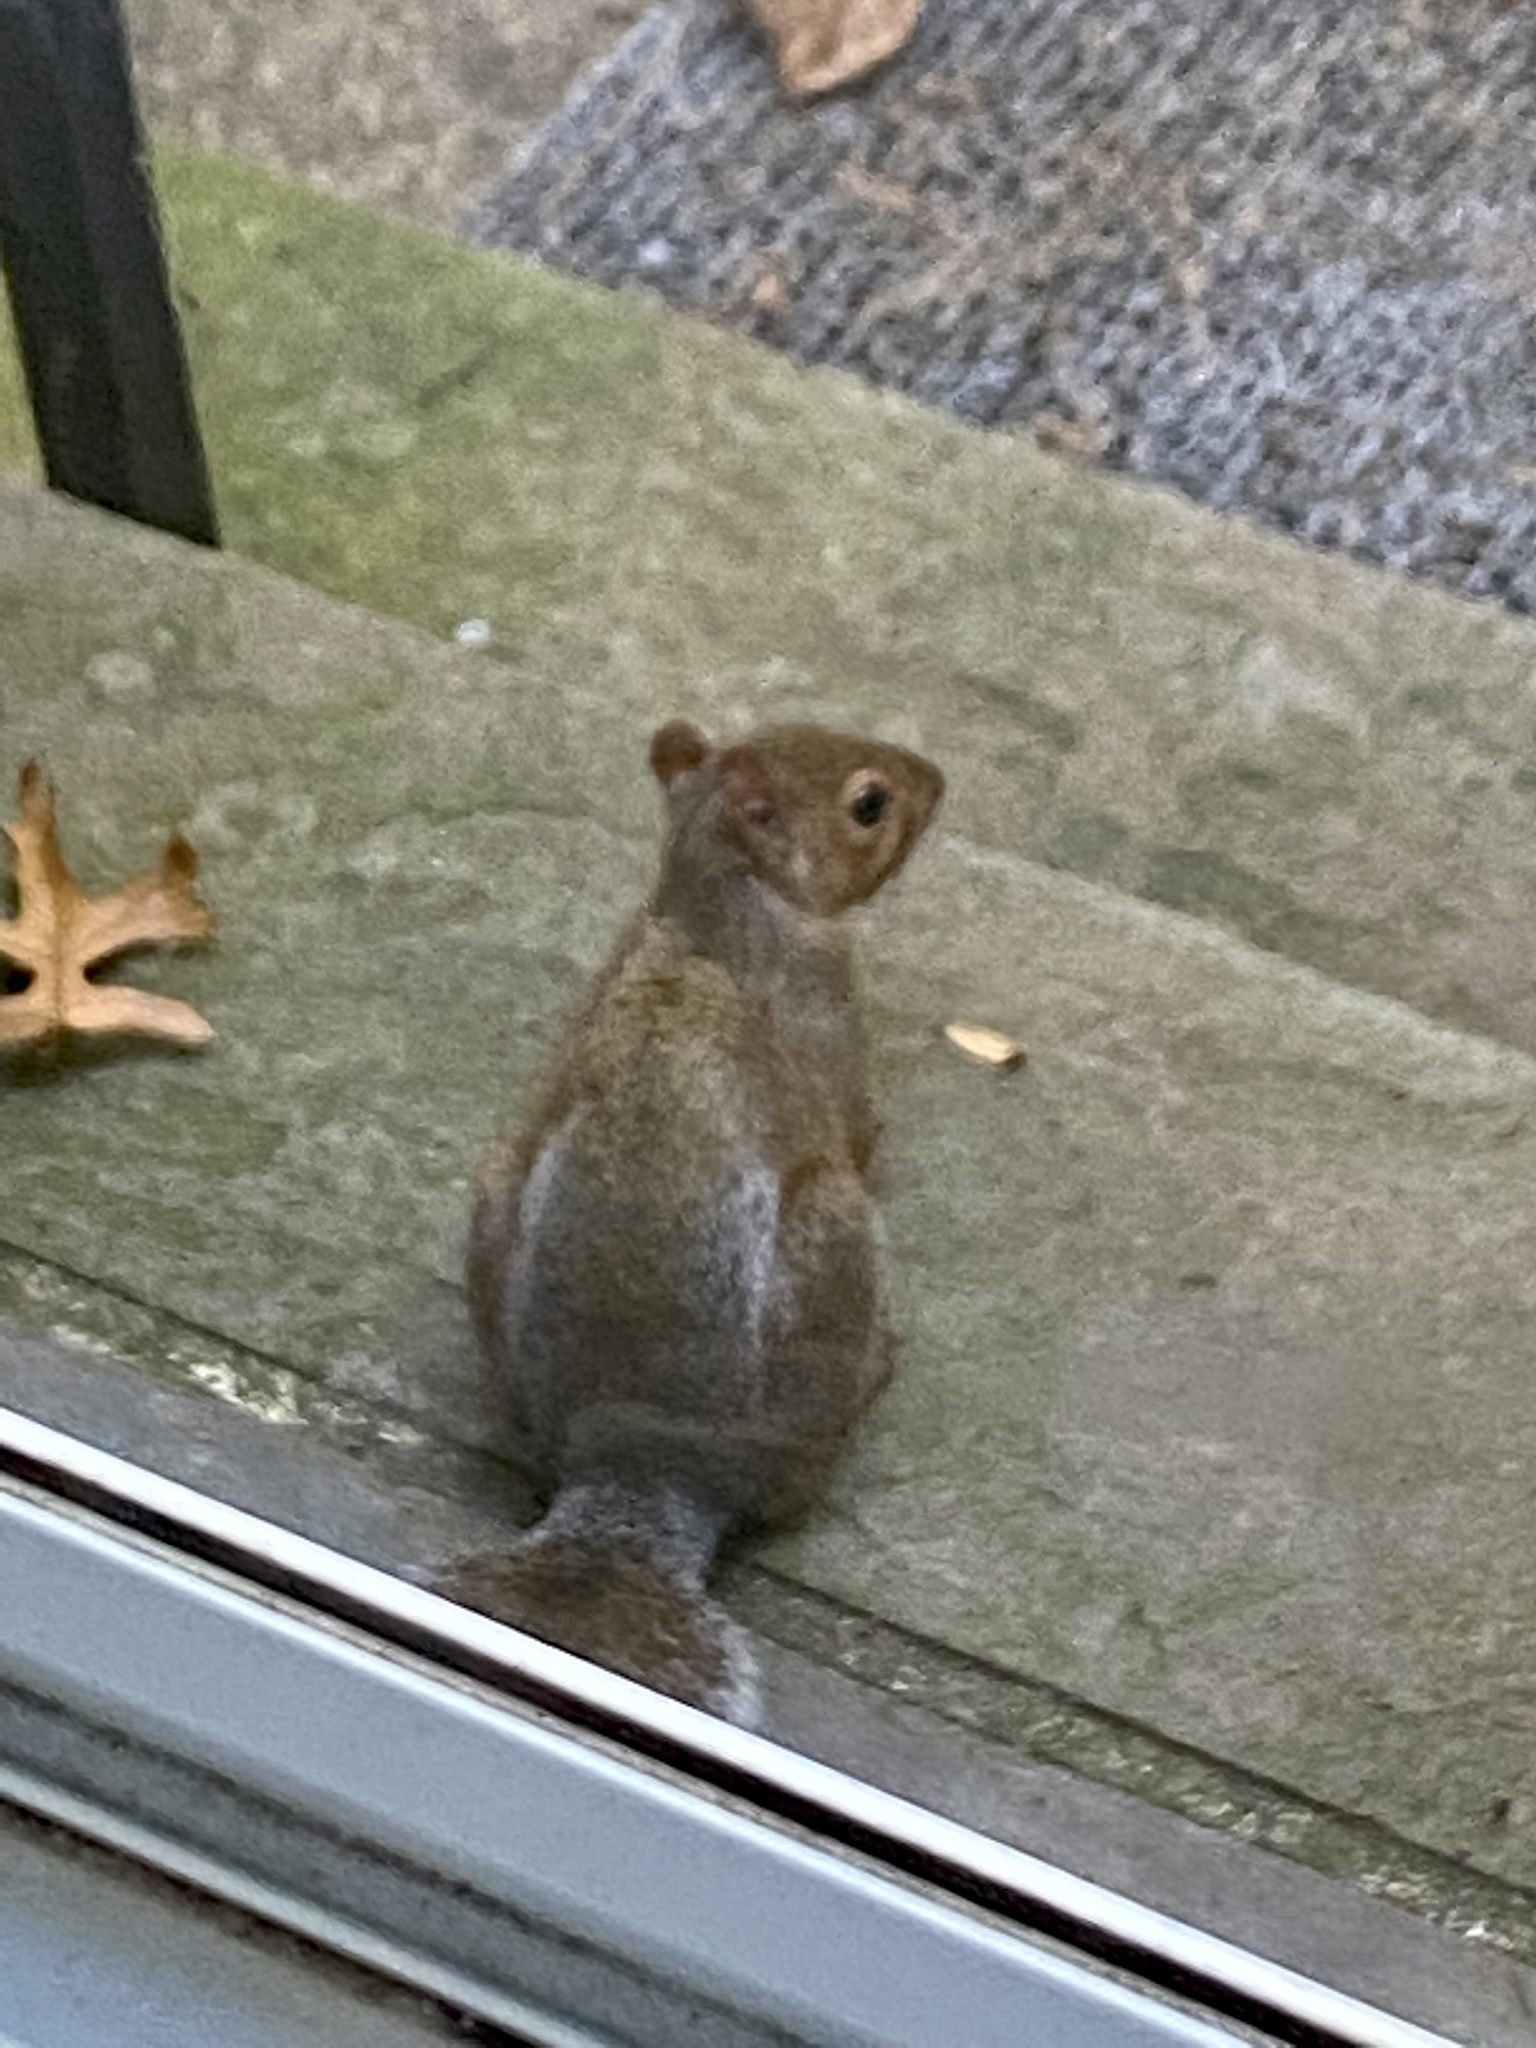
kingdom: Animalia
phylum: Chordata
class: Mammalia
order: Rodentia
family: Sciuridae
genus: Sciurus
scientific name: Sciurus carolinensis
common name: Eastern gray squirrel
